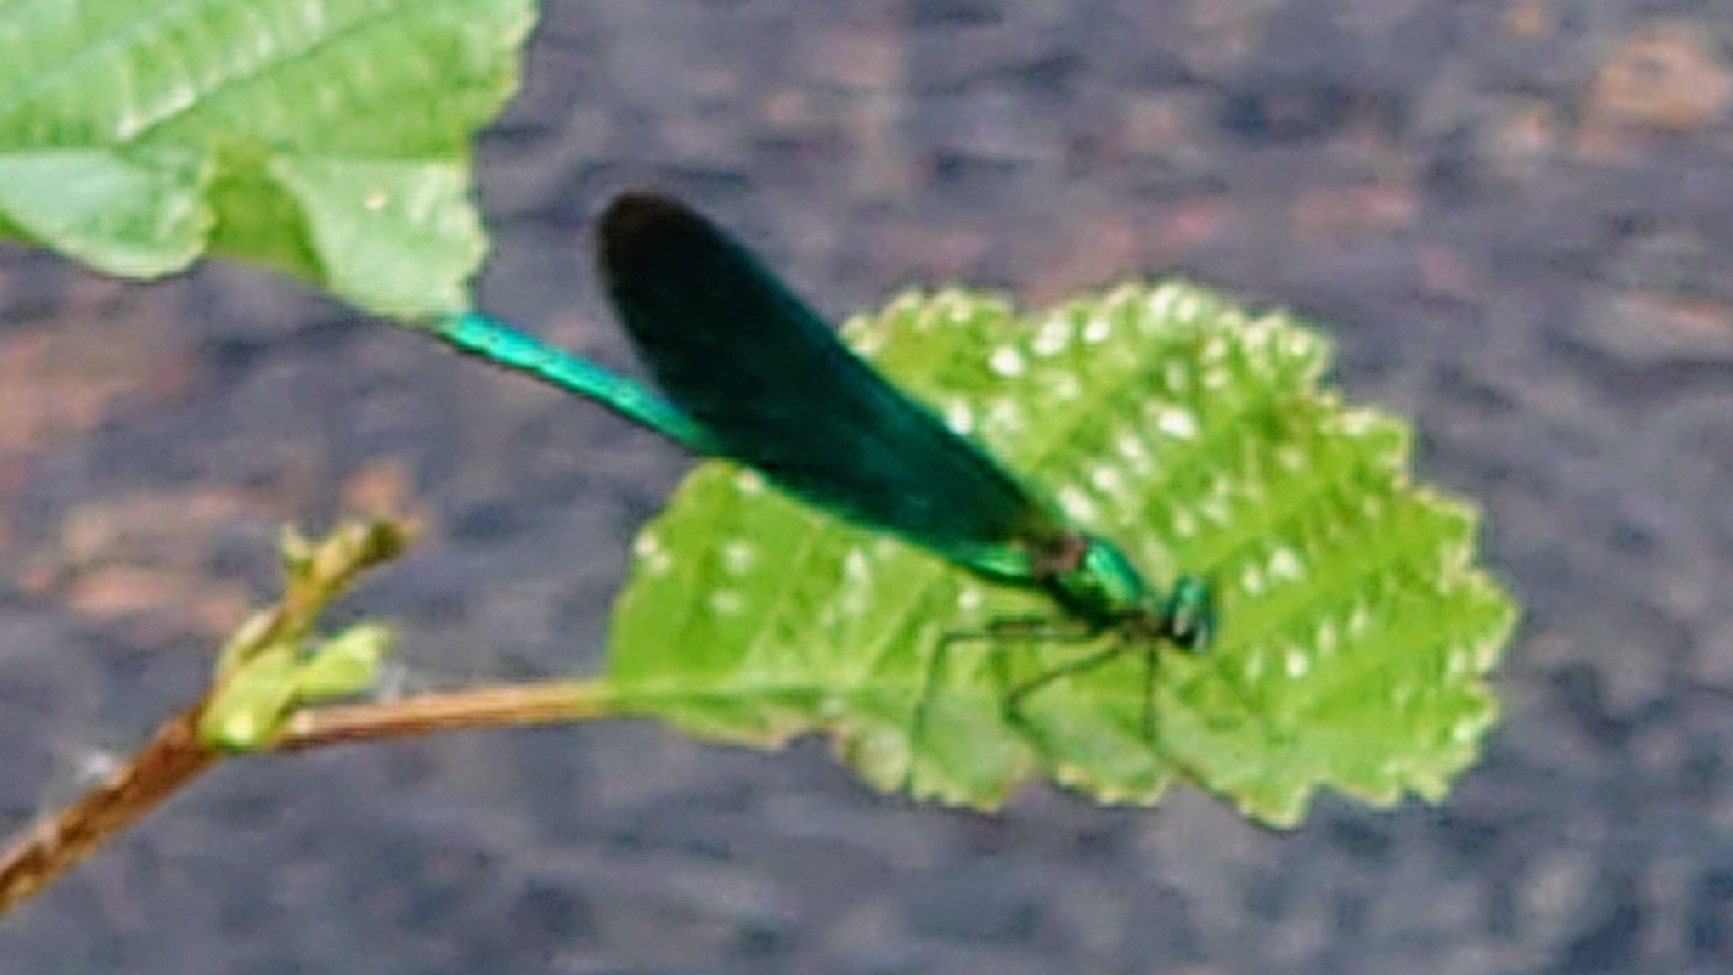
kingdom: Animalia
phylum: Arthropoda
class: Insecta
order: Odonata
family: Calopterygidae
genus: Calopteryx
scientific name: Calopteryx virgo
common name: Beautiful demoiselle
